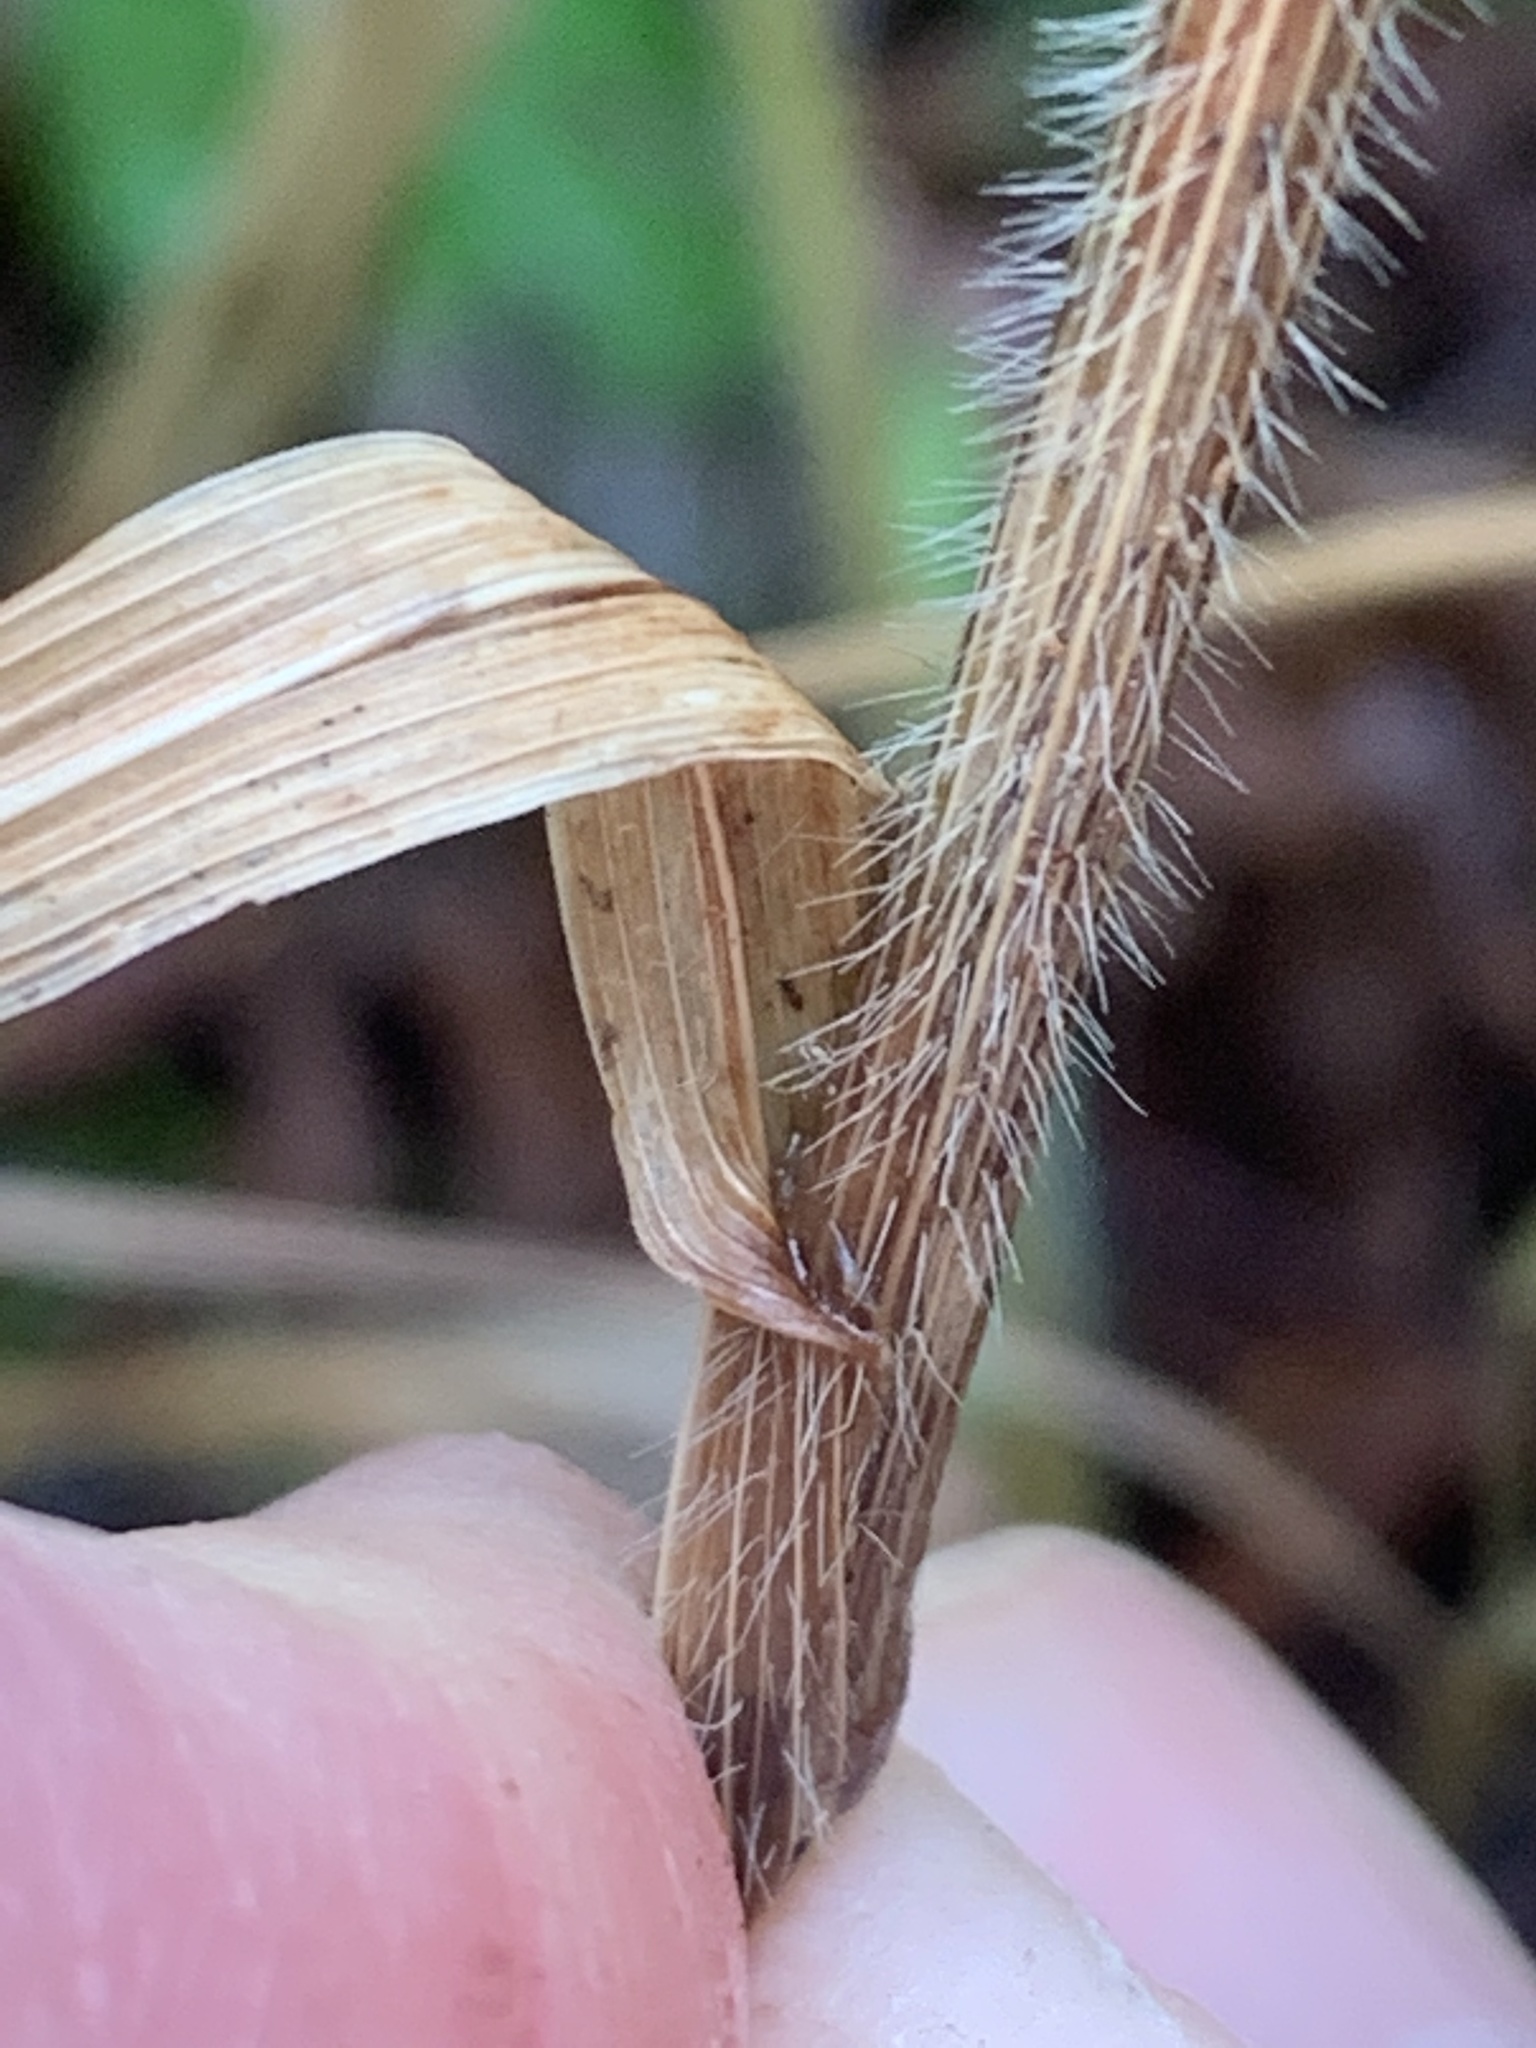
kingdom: Plantae
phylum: Tracheophyta
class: Liliopsida
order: Poales
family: Poaceae
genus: Bromus
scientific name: Bromus vulgaris
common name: Columbia brome
